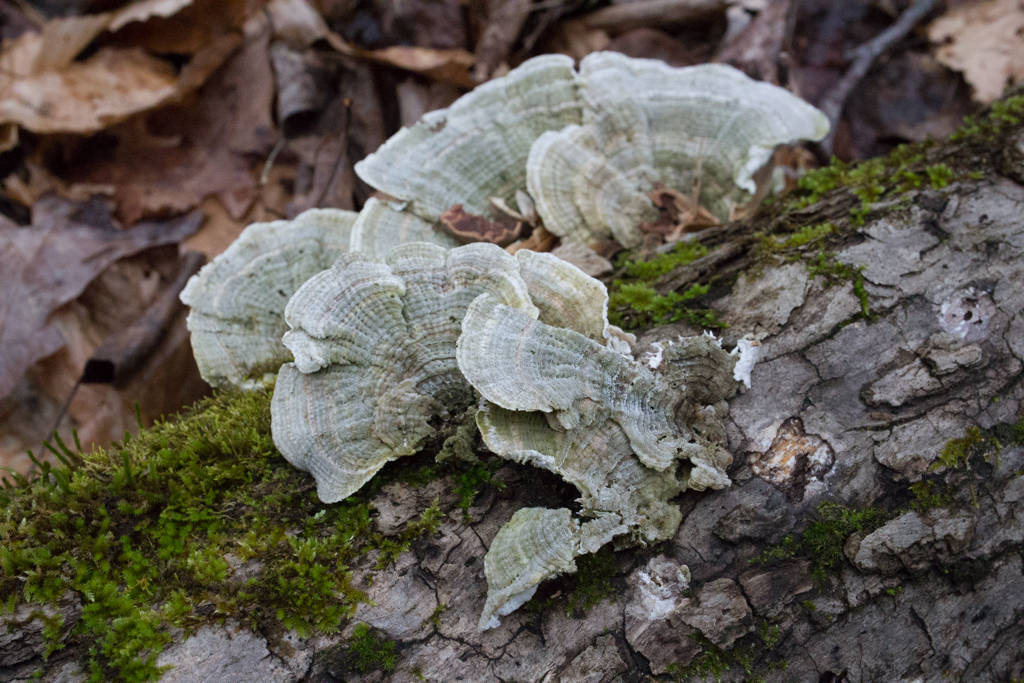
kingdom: Fungi
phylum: Basidiomycota
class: Agaricomycetes
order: Polyporales
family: Polyporaceae
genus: Lenzites
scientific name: Lenzites betulinus
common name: Birch mazegill
